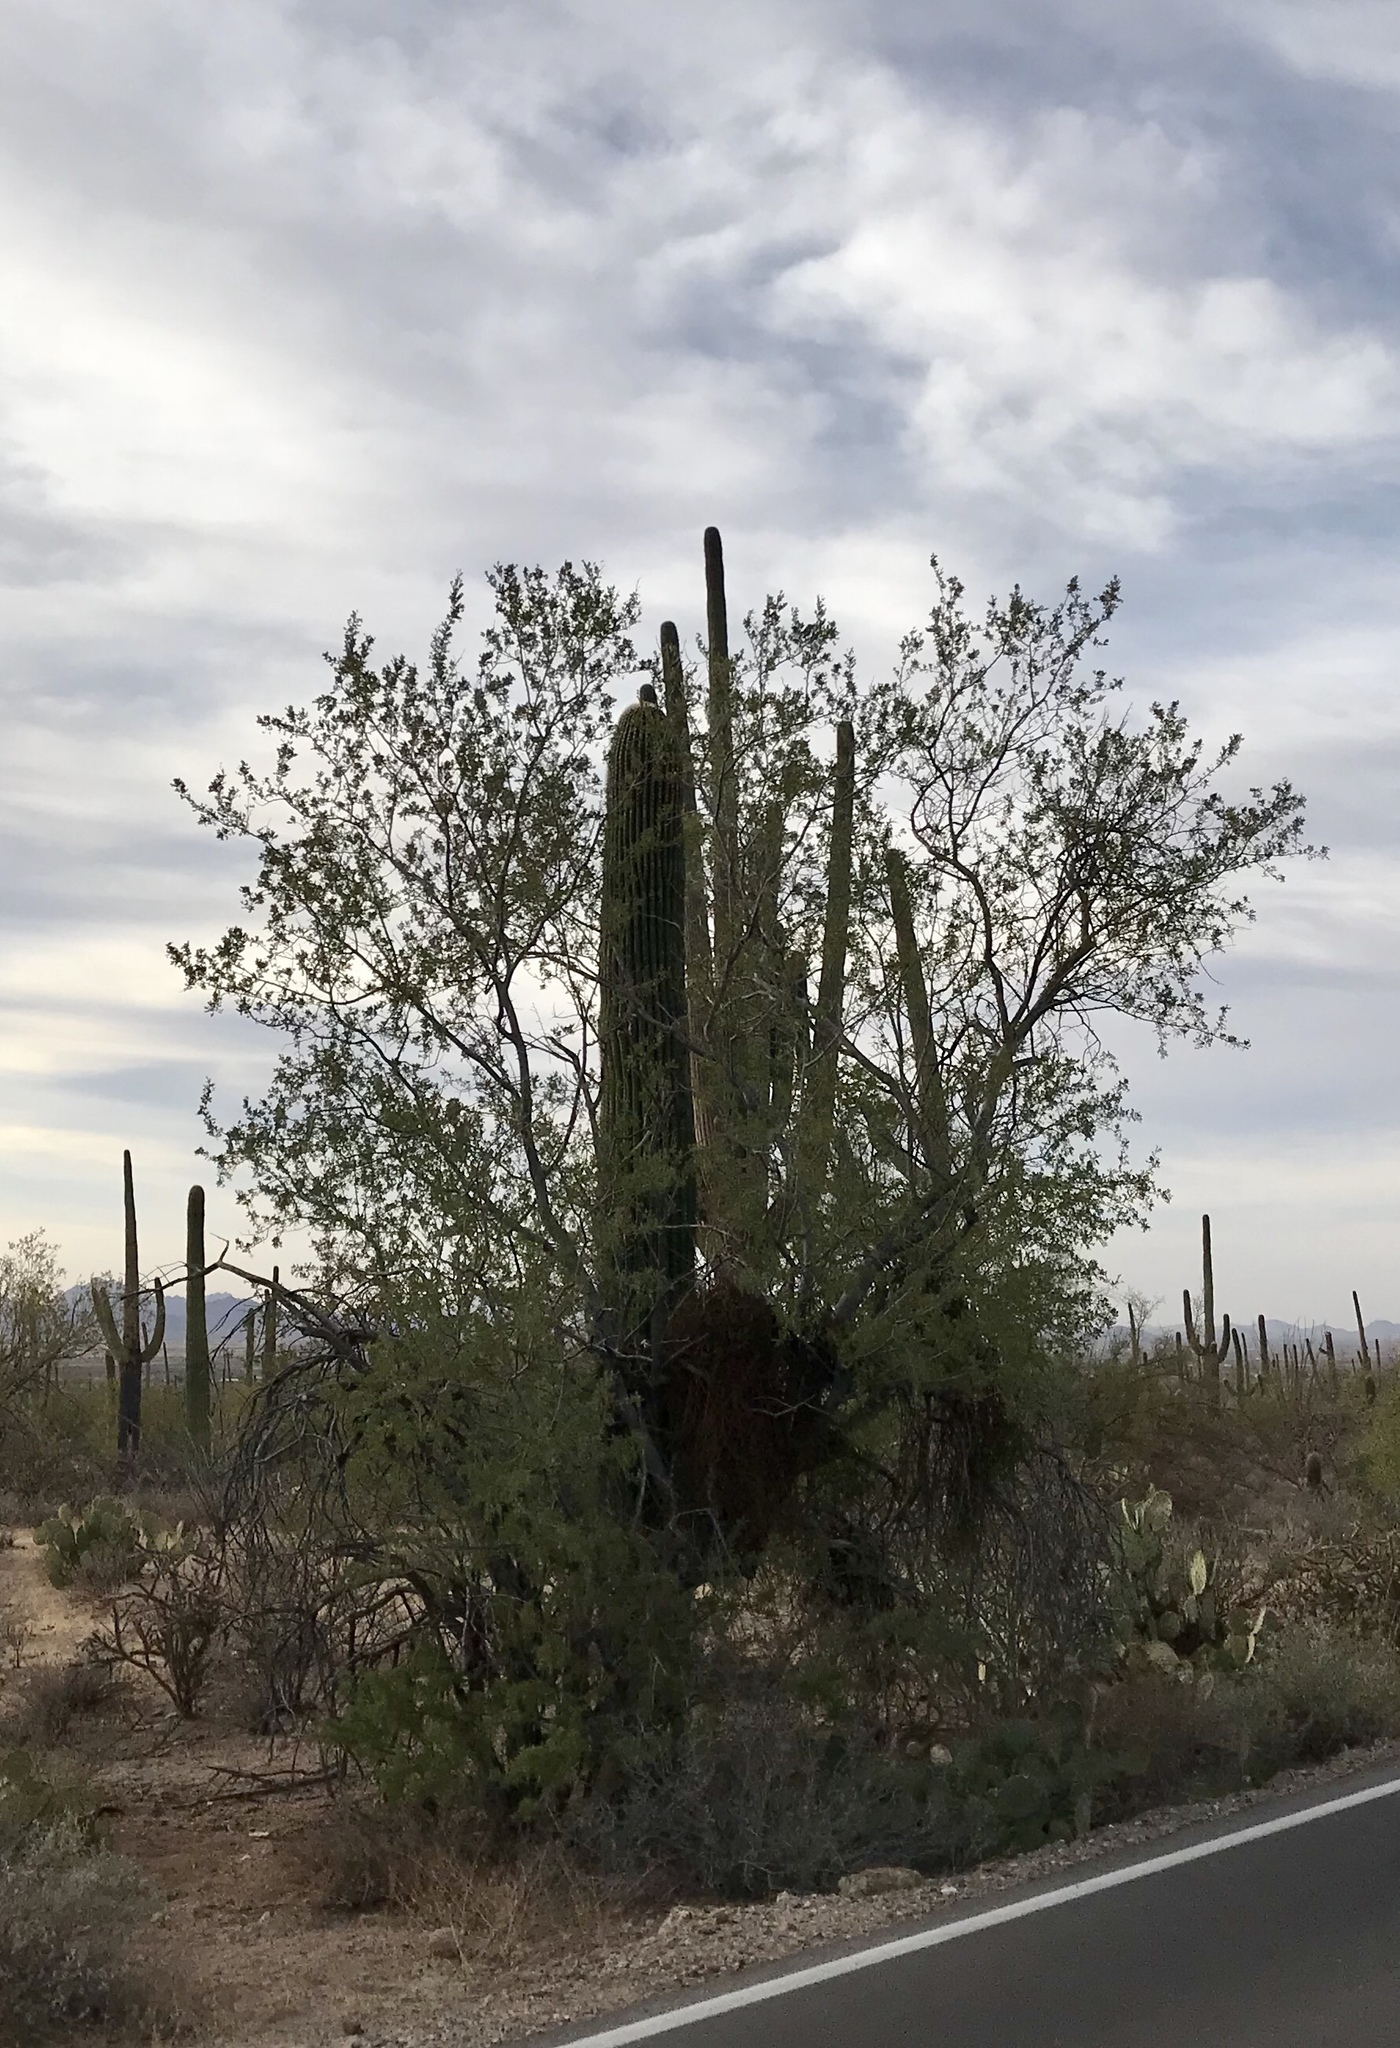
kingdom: Plantae
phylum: Tracheophyta
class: Magnoliopsida
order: Fabales
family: Fabaceae
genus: Olneya
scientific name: Olneya tesota
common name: Desert ironwood
